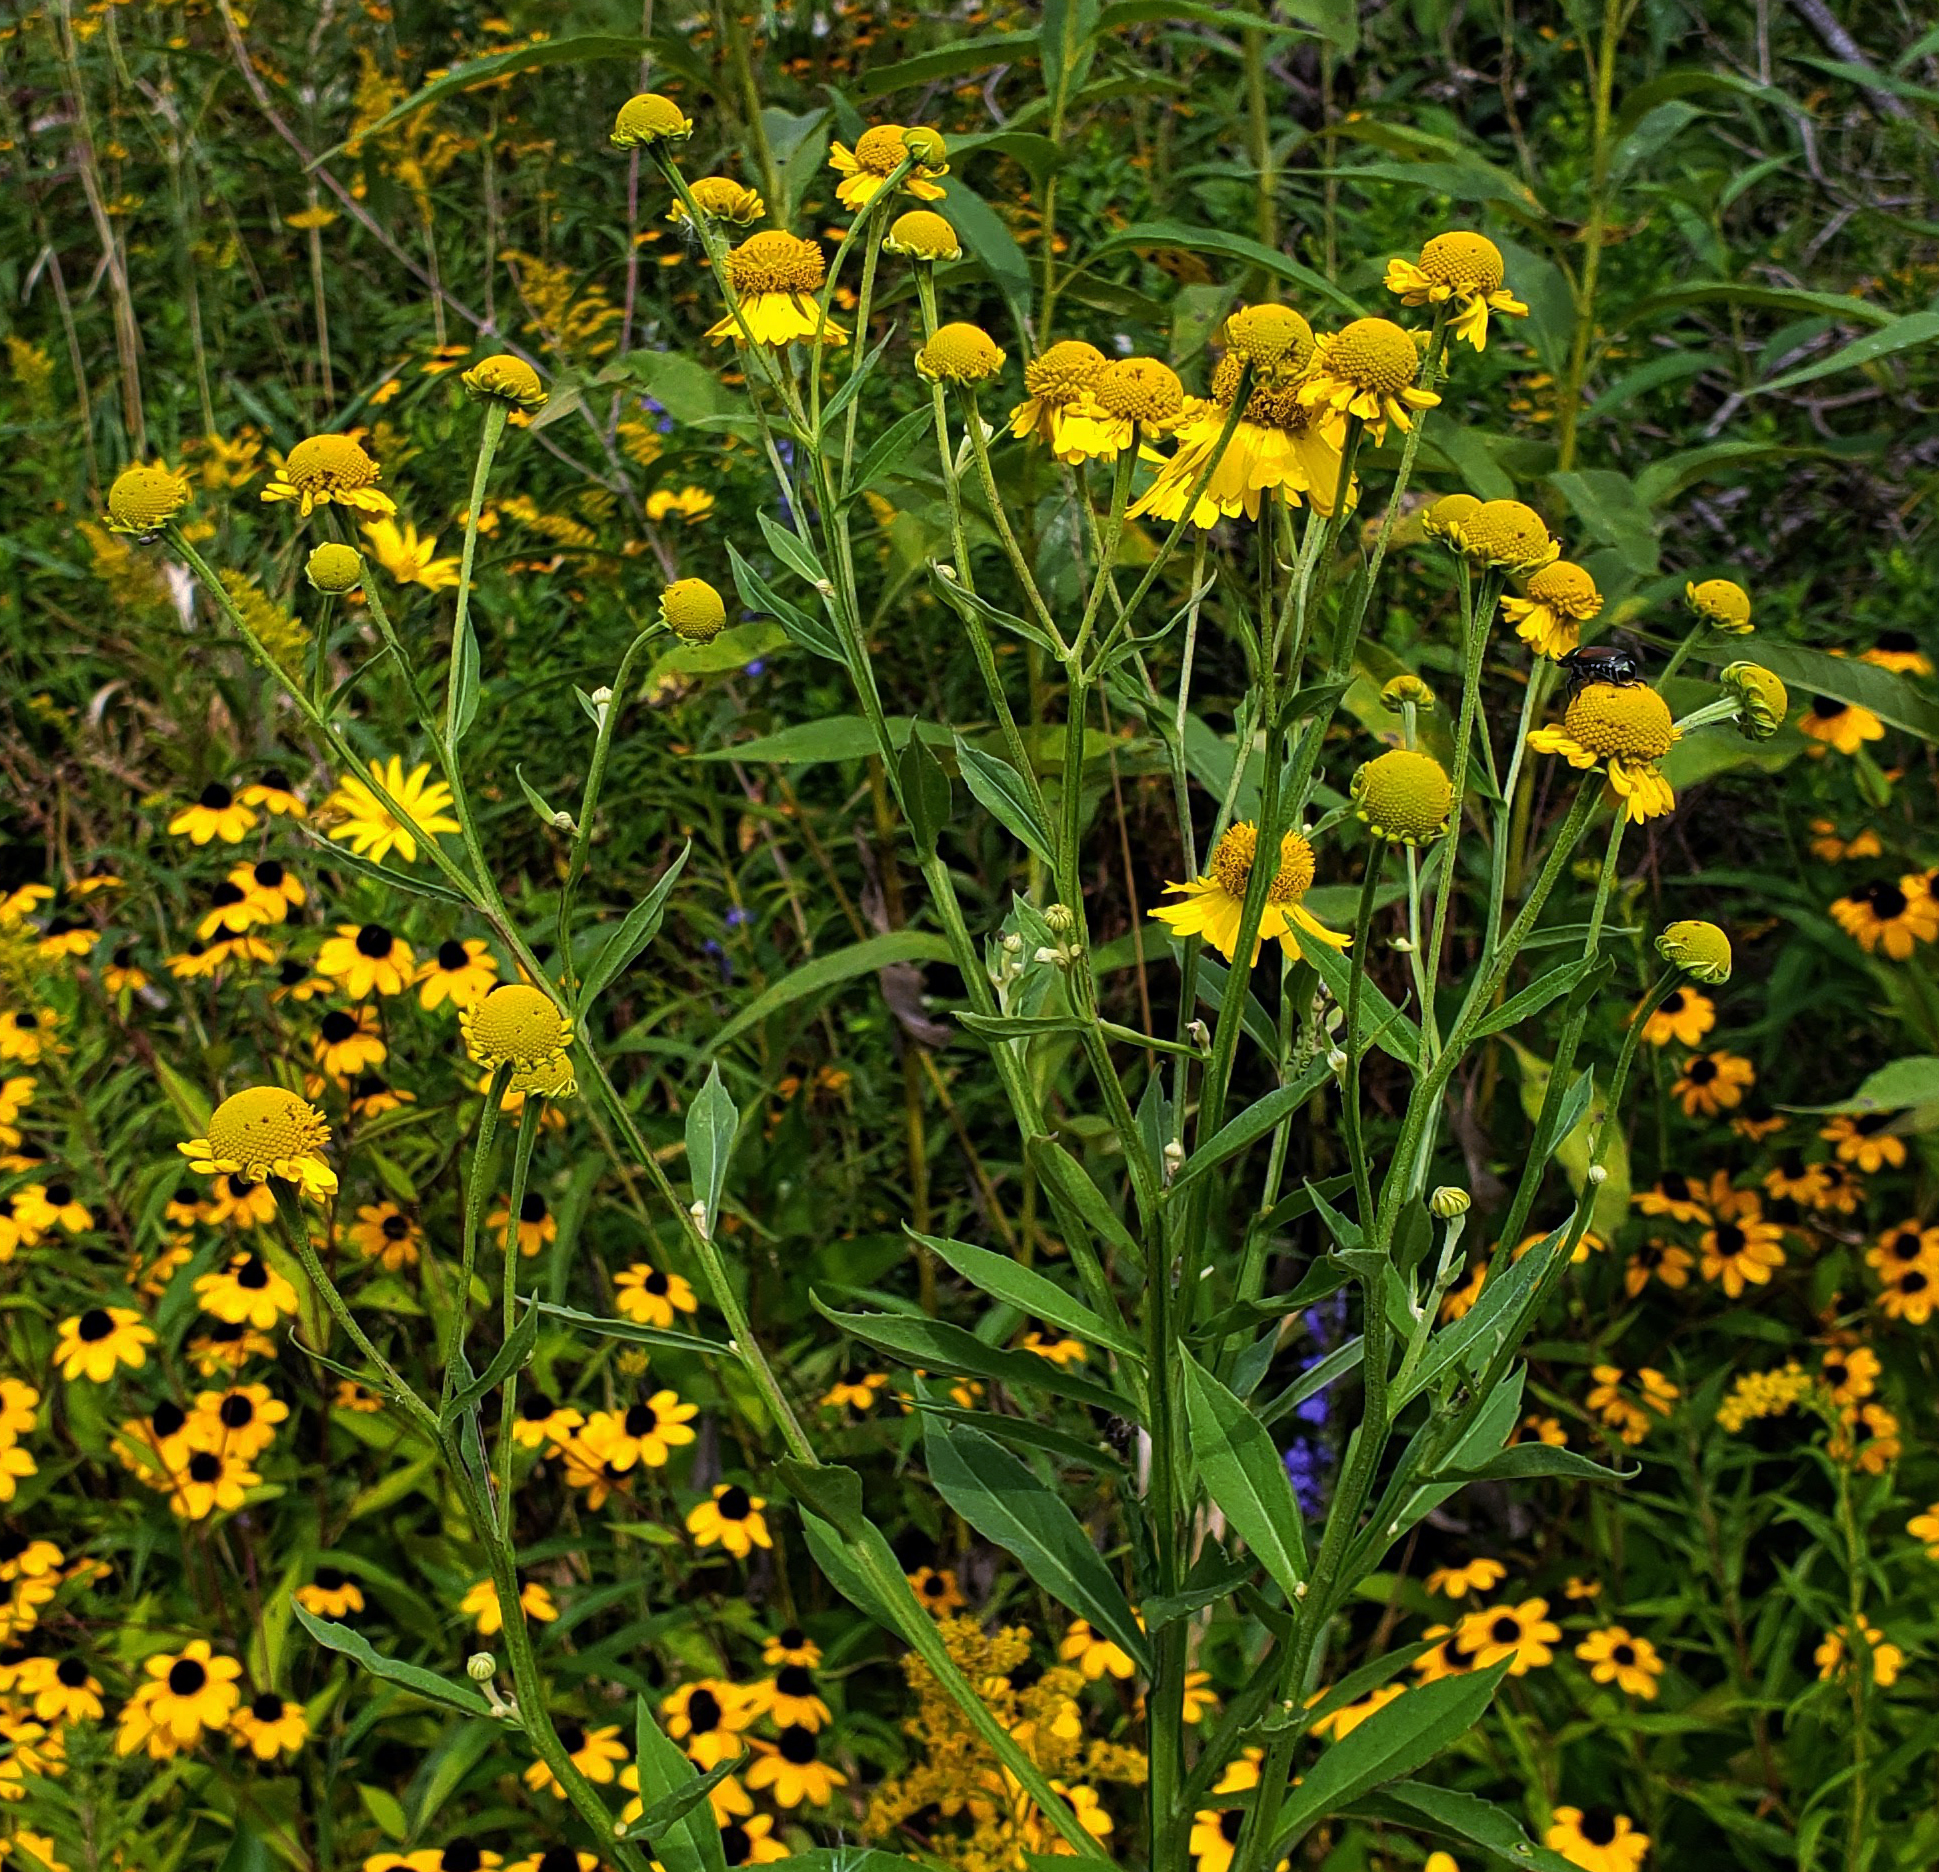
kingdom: Plantae
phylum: Tracheophyta
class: Magnoliopsida
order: Asterales
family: Asteraceae
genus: Helenium
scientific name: Helenium autumnale
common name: Sneezeweed
